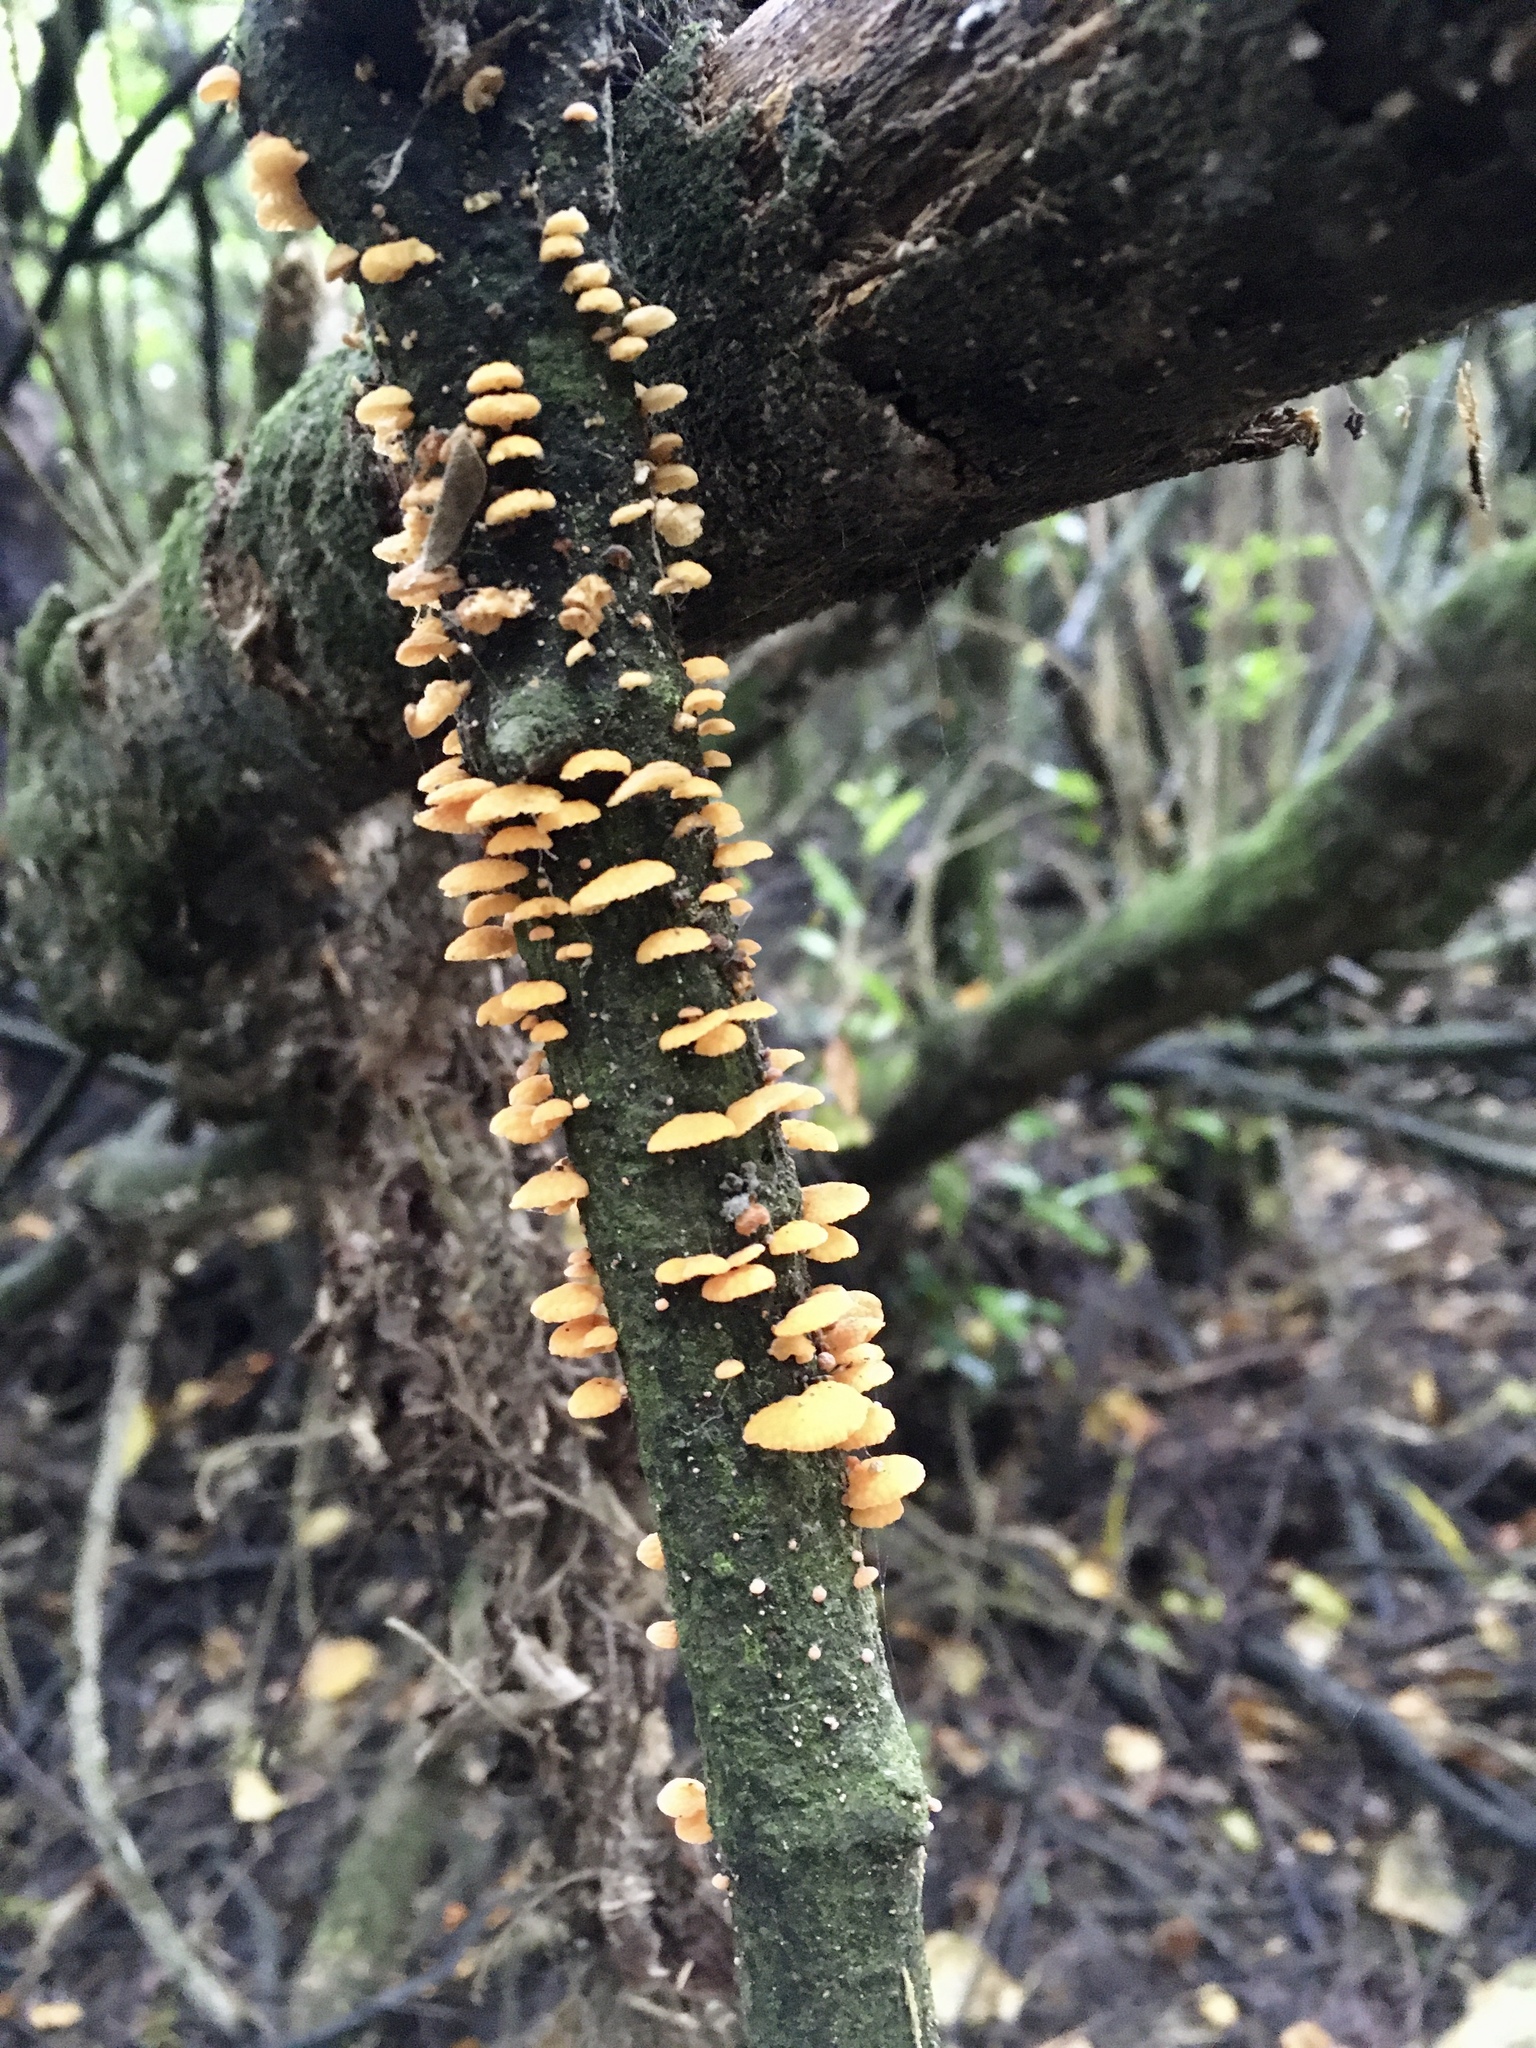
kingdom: Fungi
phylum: Basidiomycota
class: Agaricomycetes
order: Agaricales
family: Mycenaceae
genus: Favolaschia
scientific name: Favolaschia claudopus
